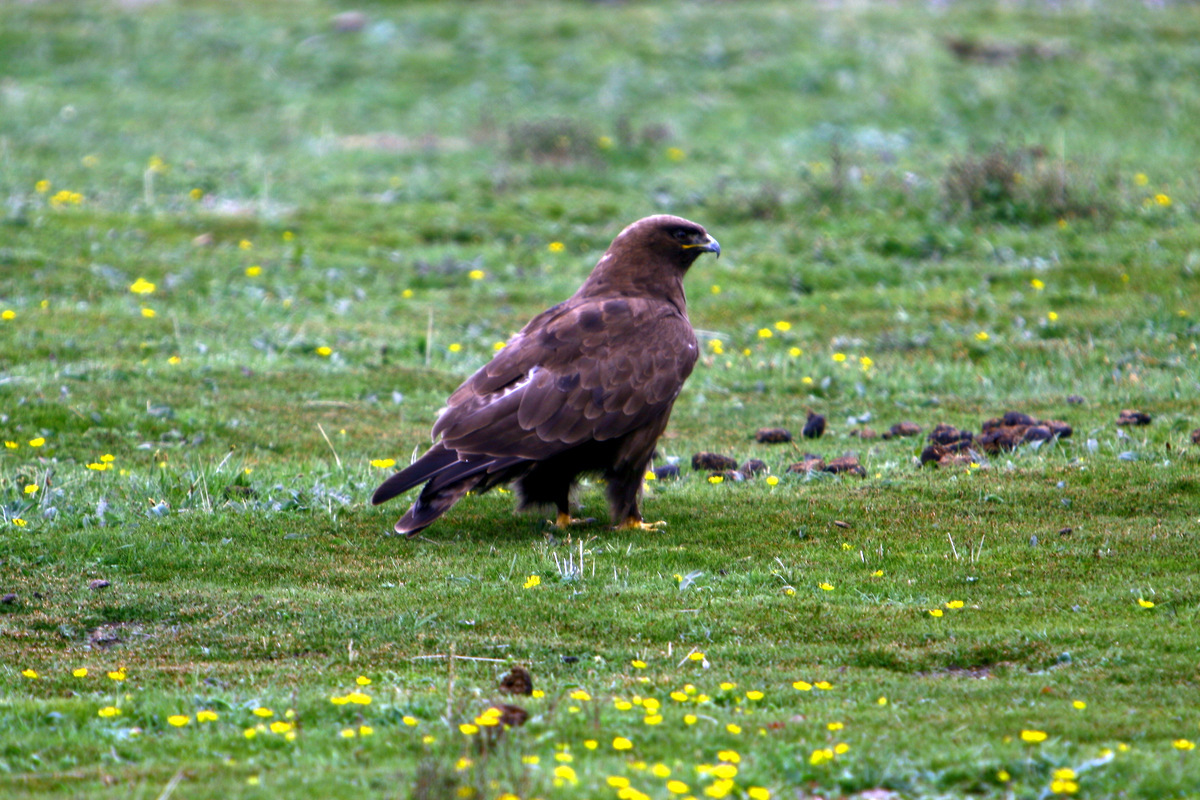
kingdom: Animalia
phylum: Chordata
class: Aves
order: Accipitriformes
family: Accipitridae
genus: Buteo
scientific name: Buteo hemilasius
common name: Upland buzzard
